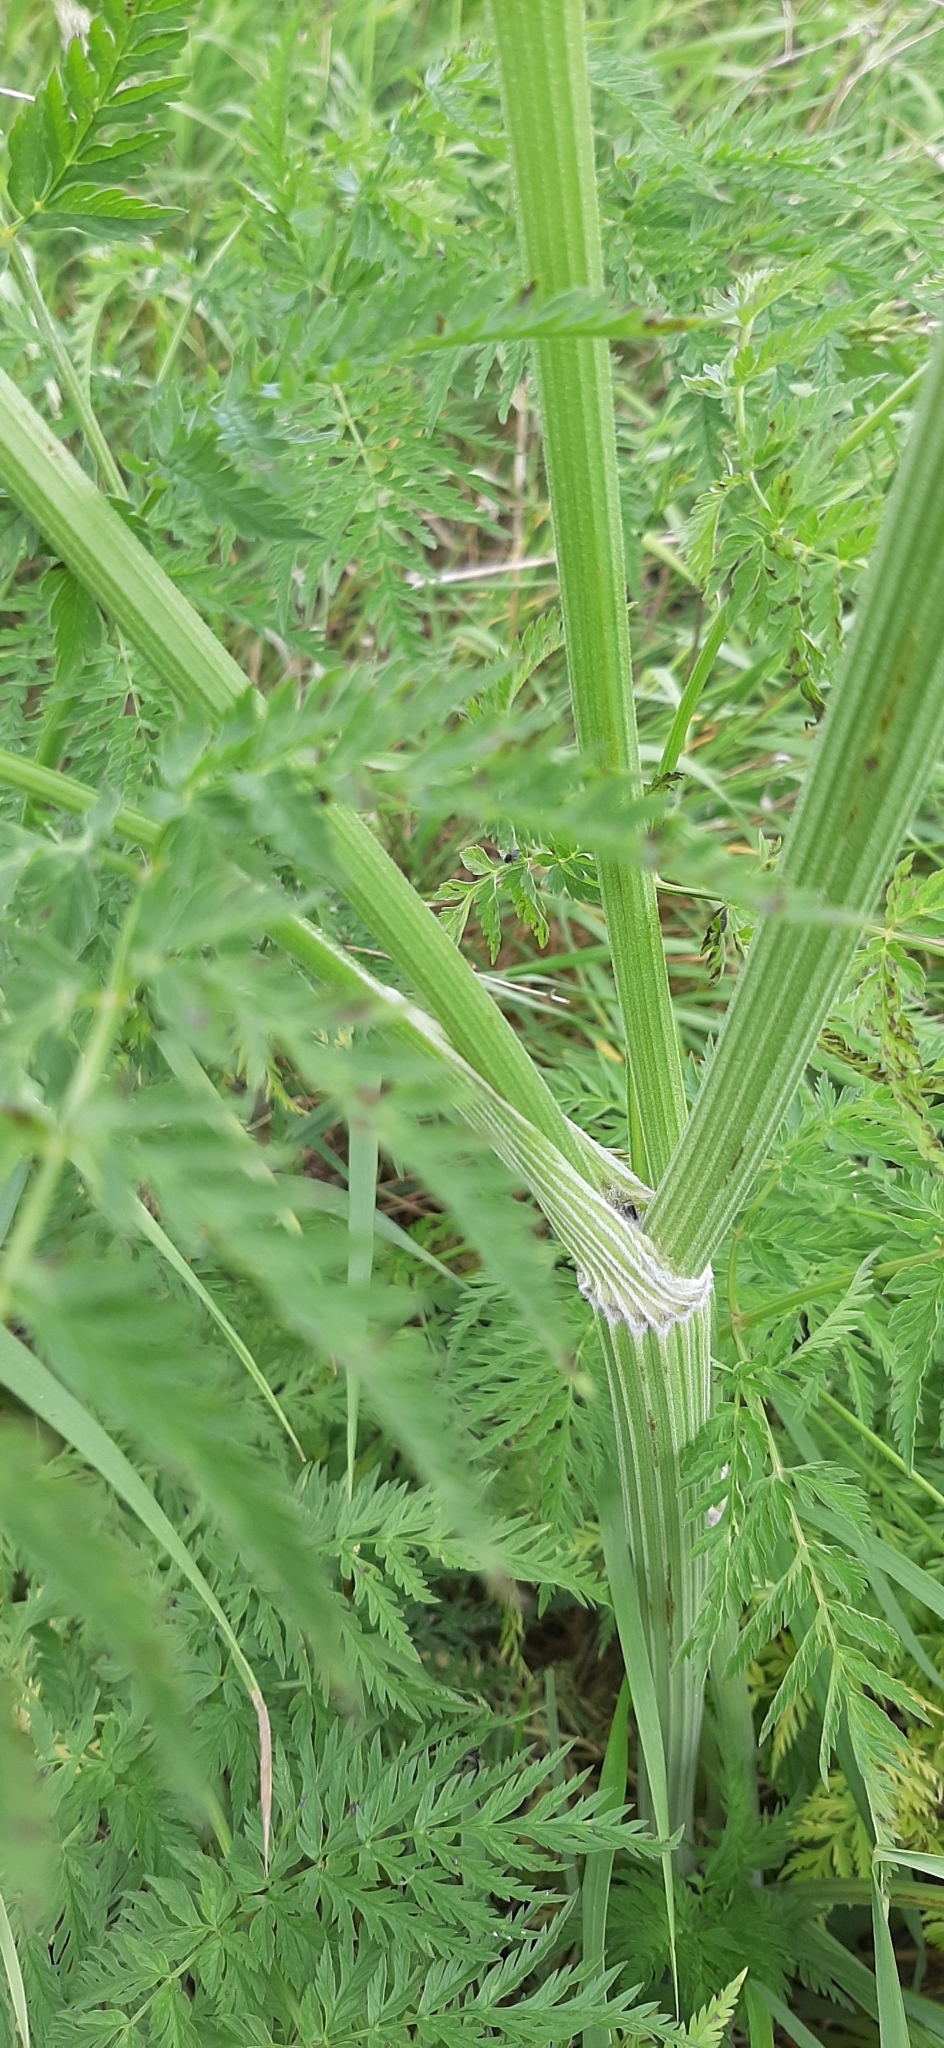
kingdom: Plantae
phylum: Tracheophyta
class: Magnoliopsida
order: Apiales
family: Apiaceae
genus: Anthriscus
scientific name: Anthriscus sylvestris
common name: Cow parsley
